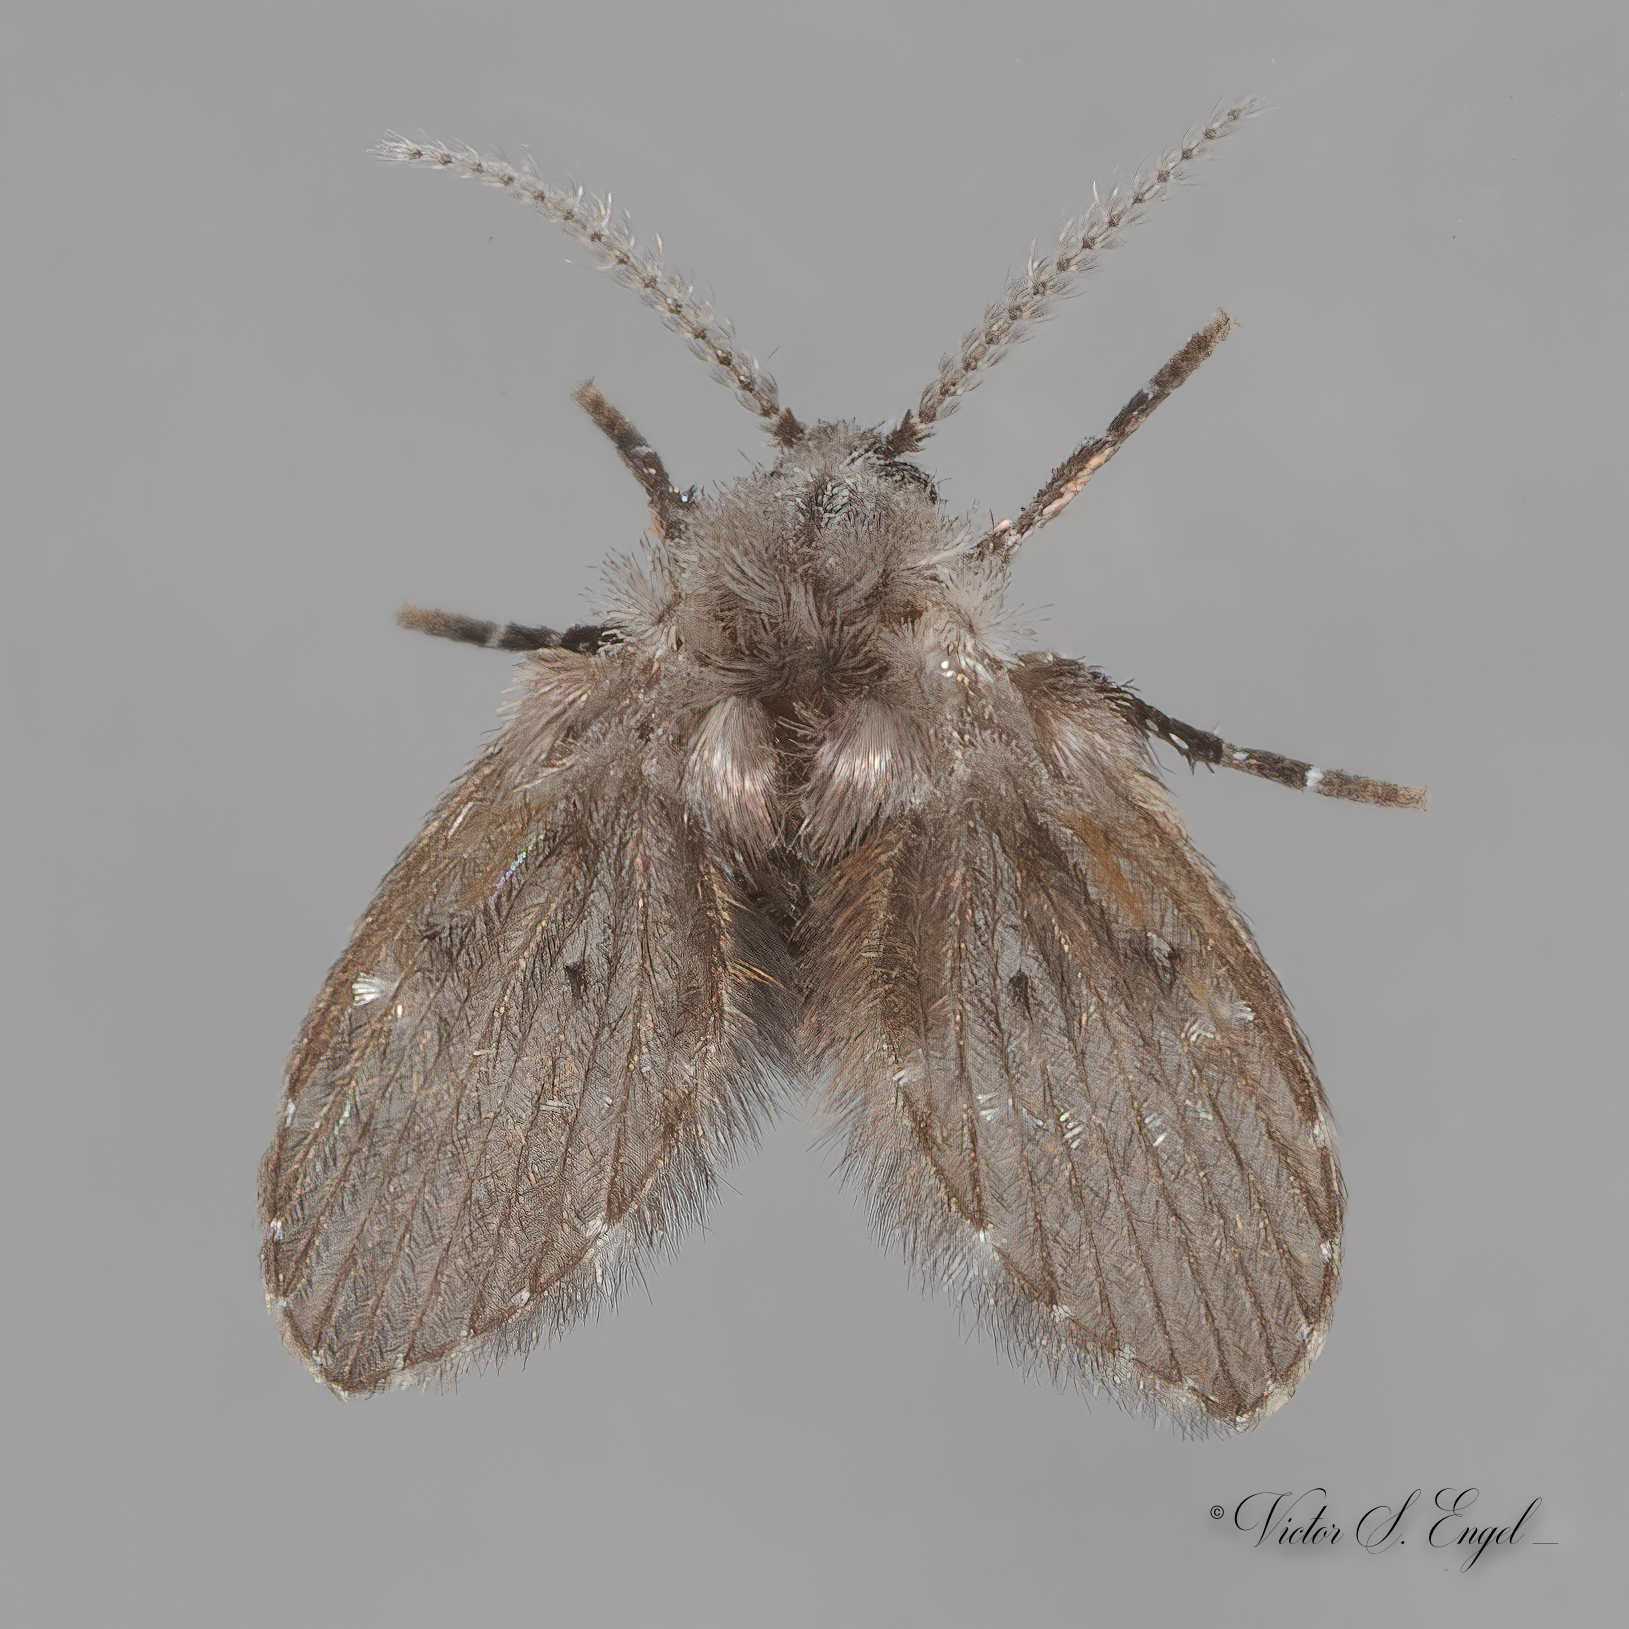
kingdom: Animalia
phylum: Arthropoda
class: Insecta
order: Diptera
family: Psychodidae
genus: Clogmia
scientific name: Clogmia albipunctatus
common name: White-spotted moth fly
